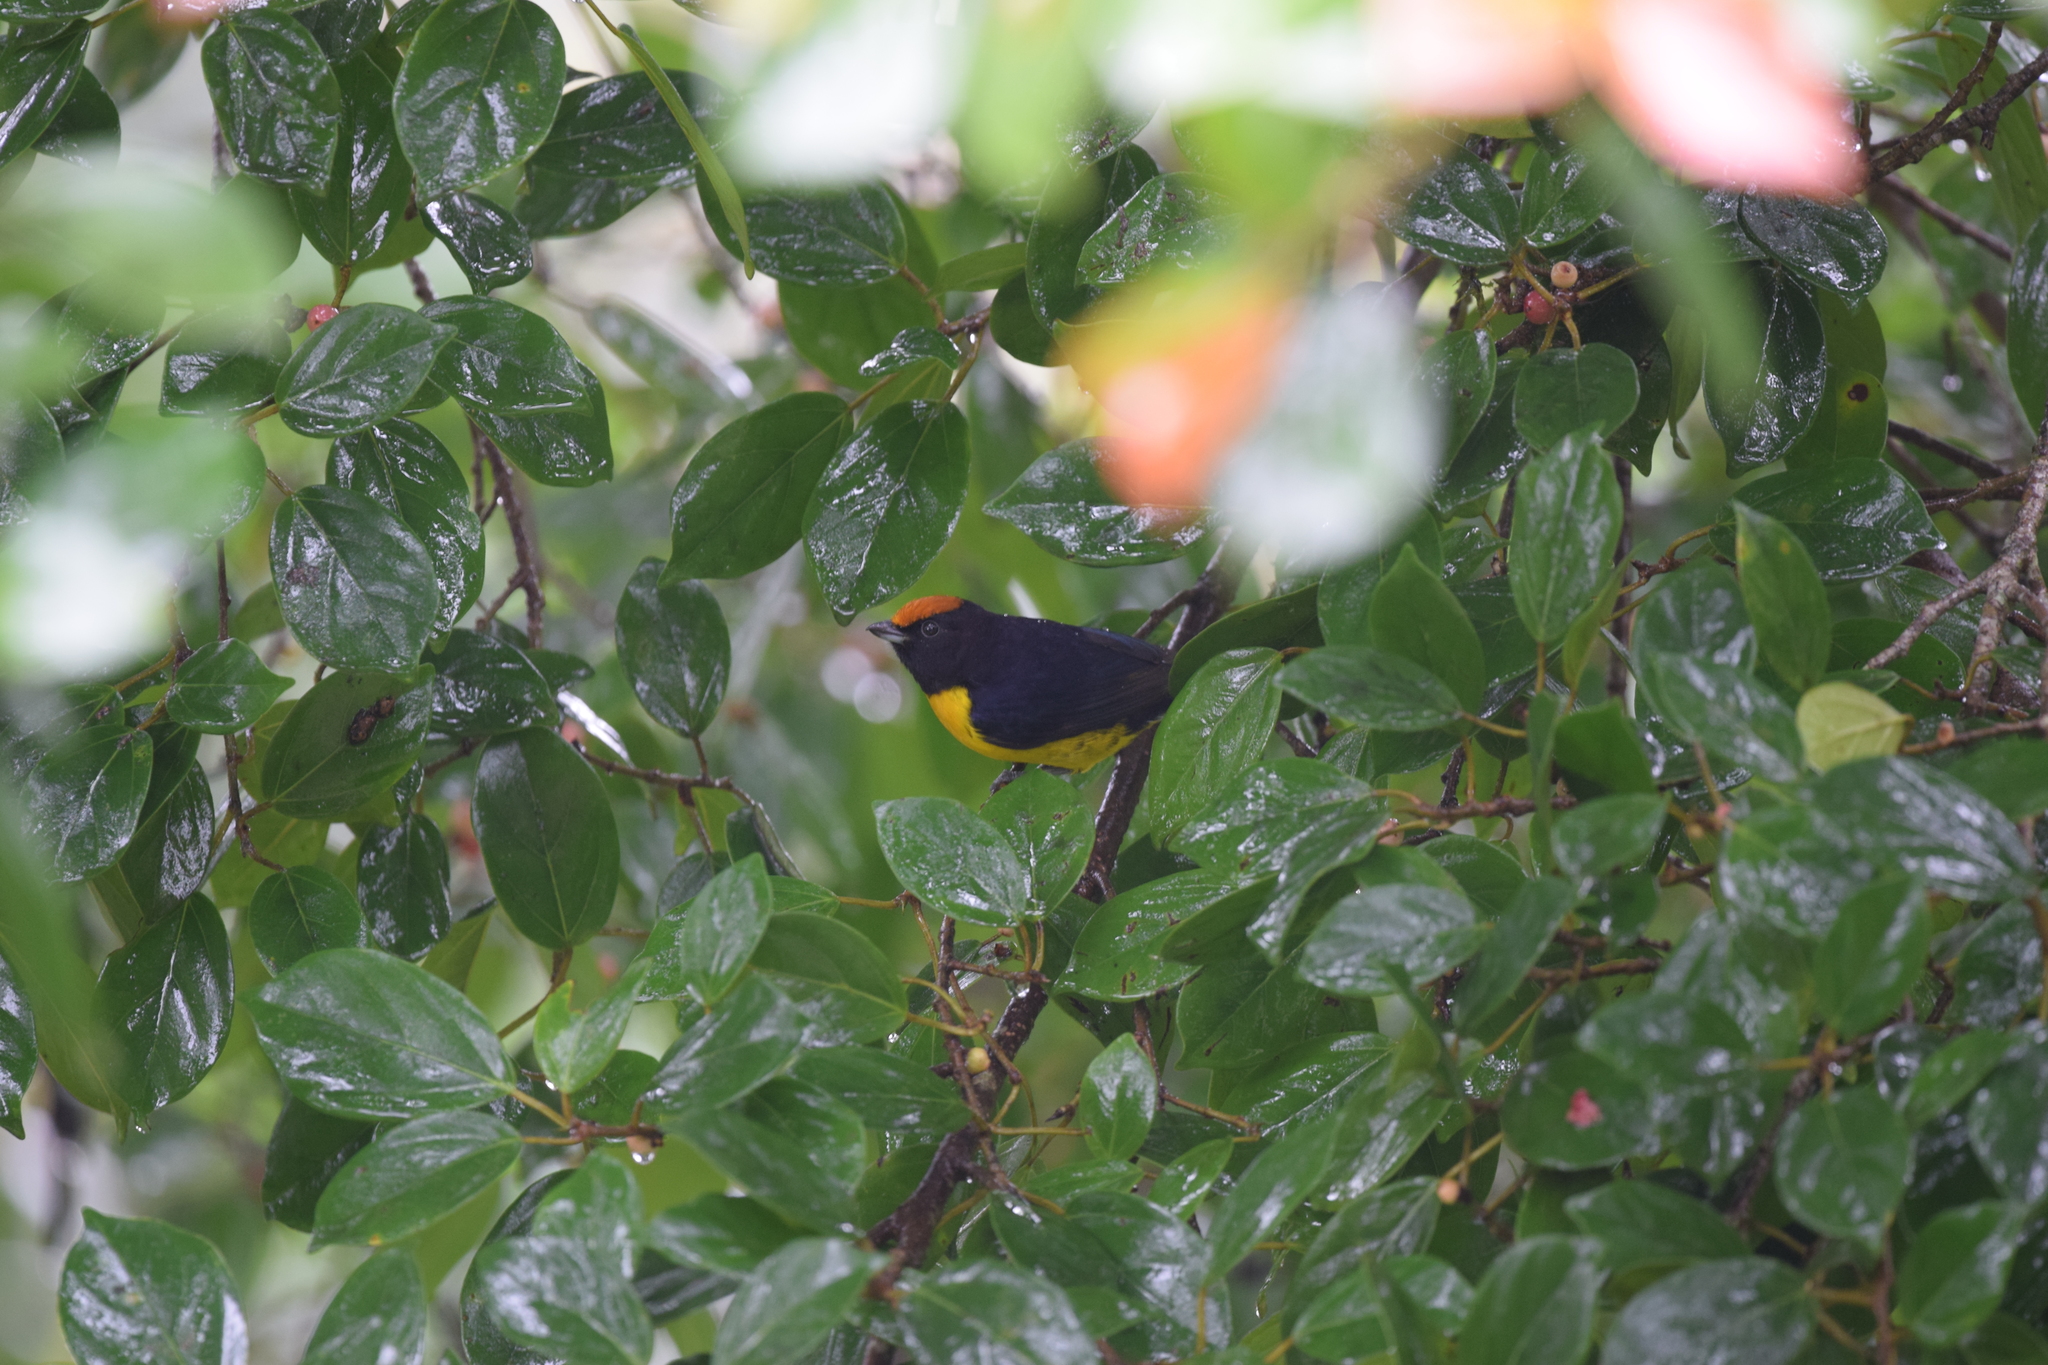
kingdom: Animalia
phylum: Chordata
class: Aves
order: Passeriformes
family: Fringillidae
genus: Euphonia
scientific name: Euphonia anneae
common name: Tawny-capped euphonia
